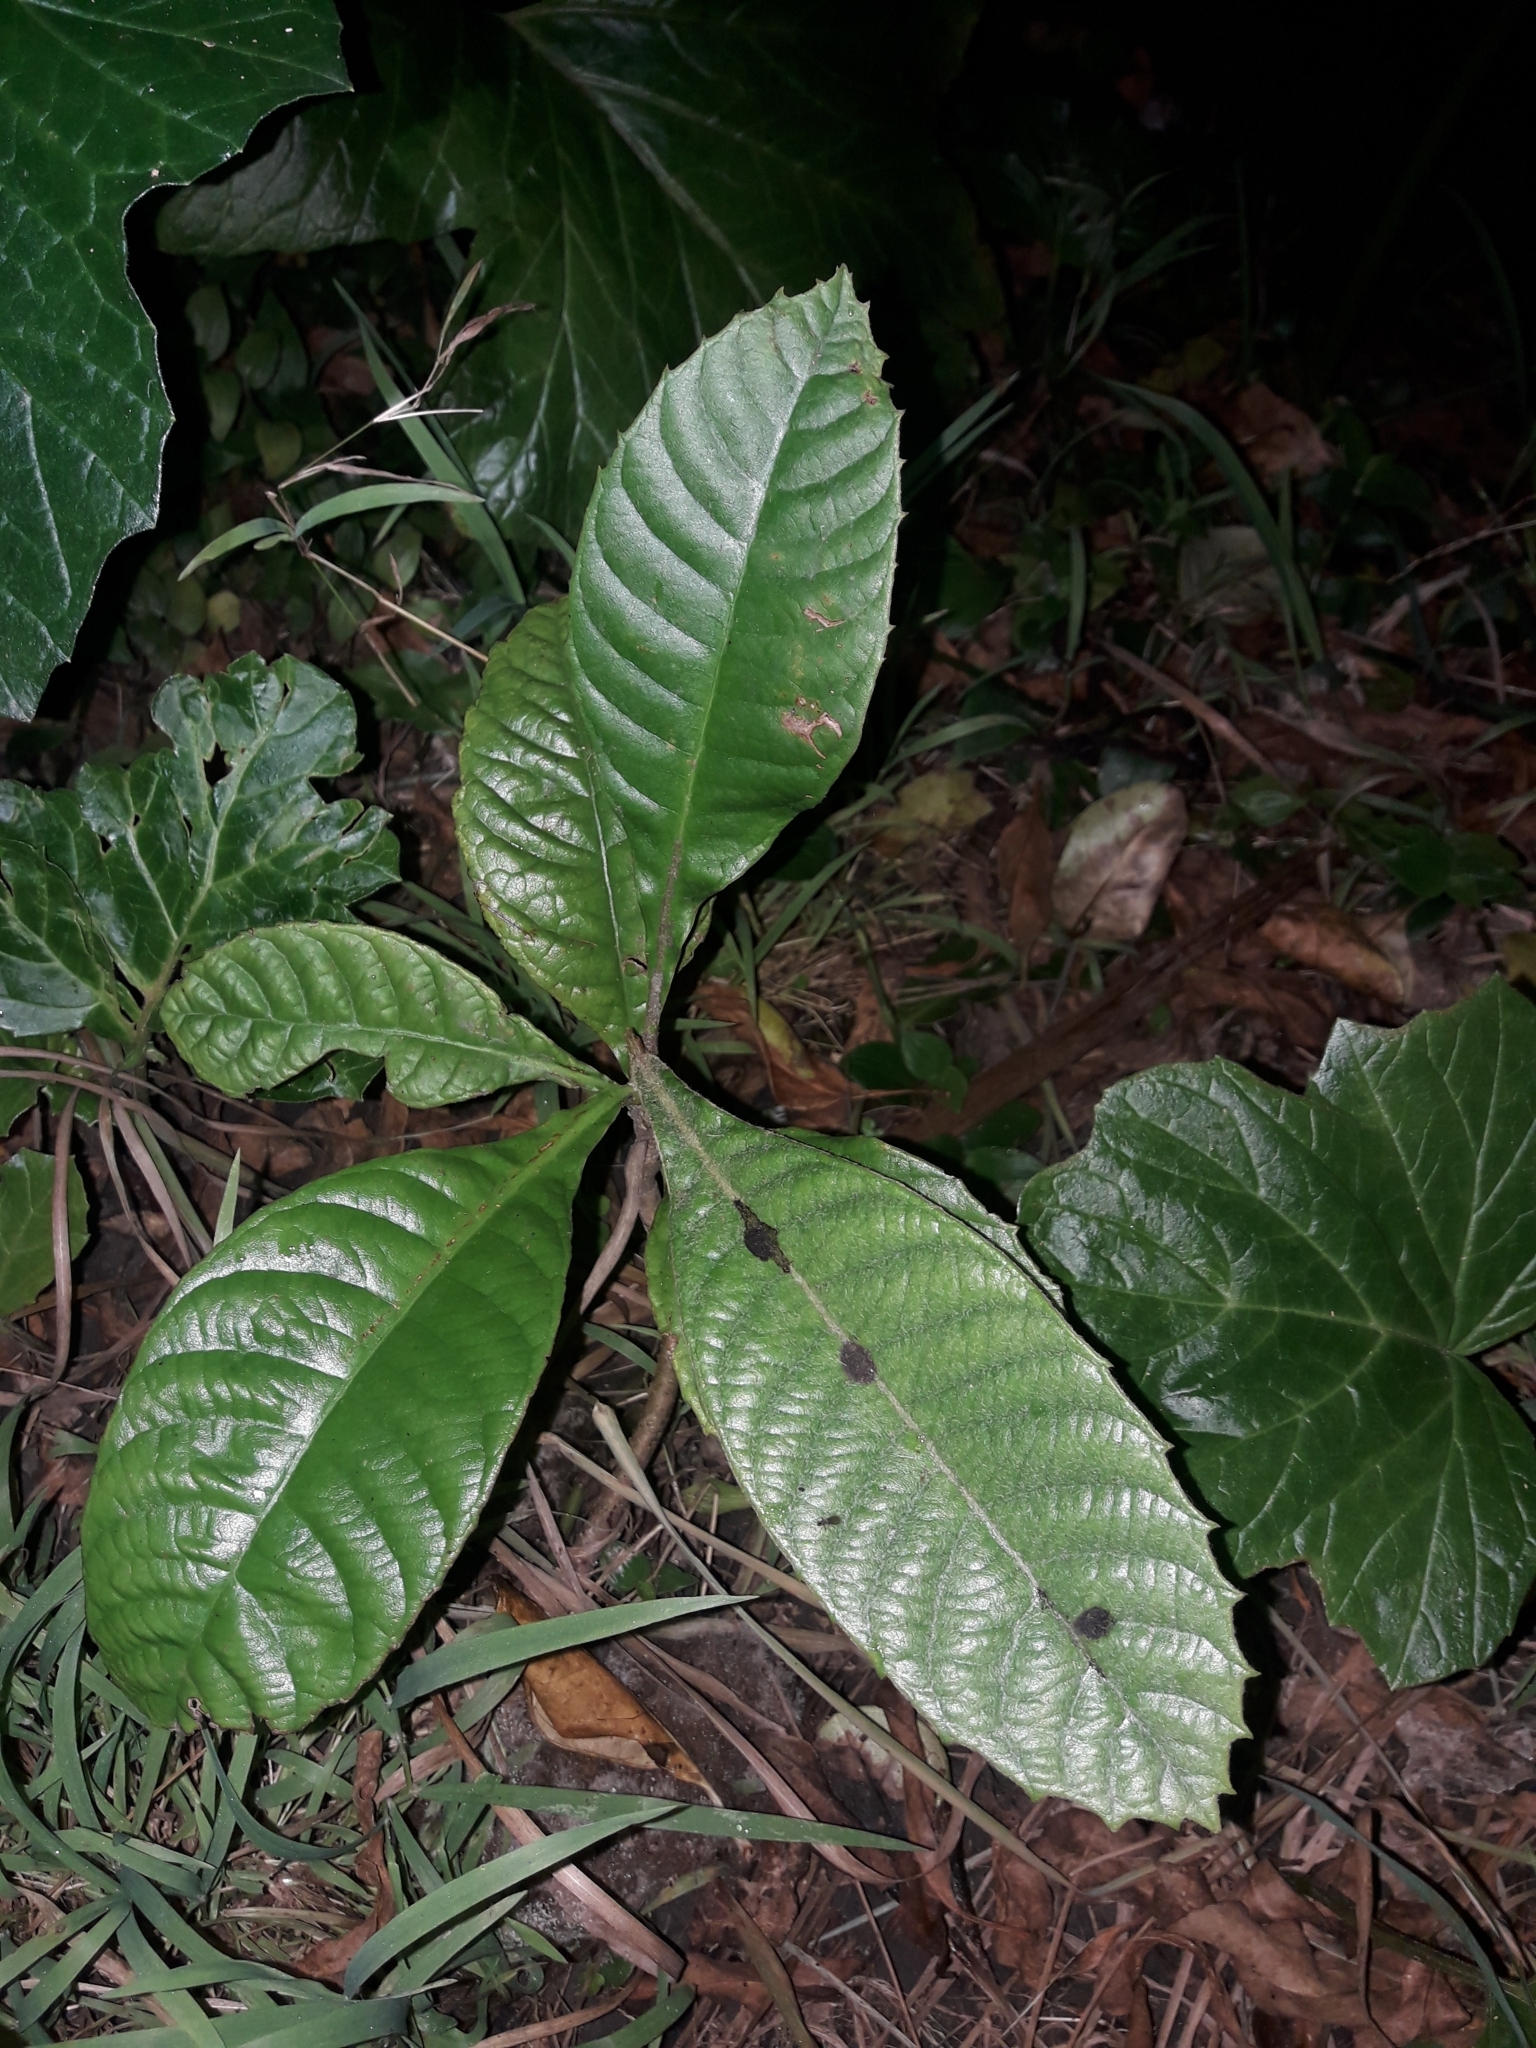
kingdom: Plantae
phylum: Tracheophyta
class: Magnoliopsida
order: Rosales
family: Rosaceae
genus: Rhaphiolepis
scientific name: Rhaphiolepis bibas
